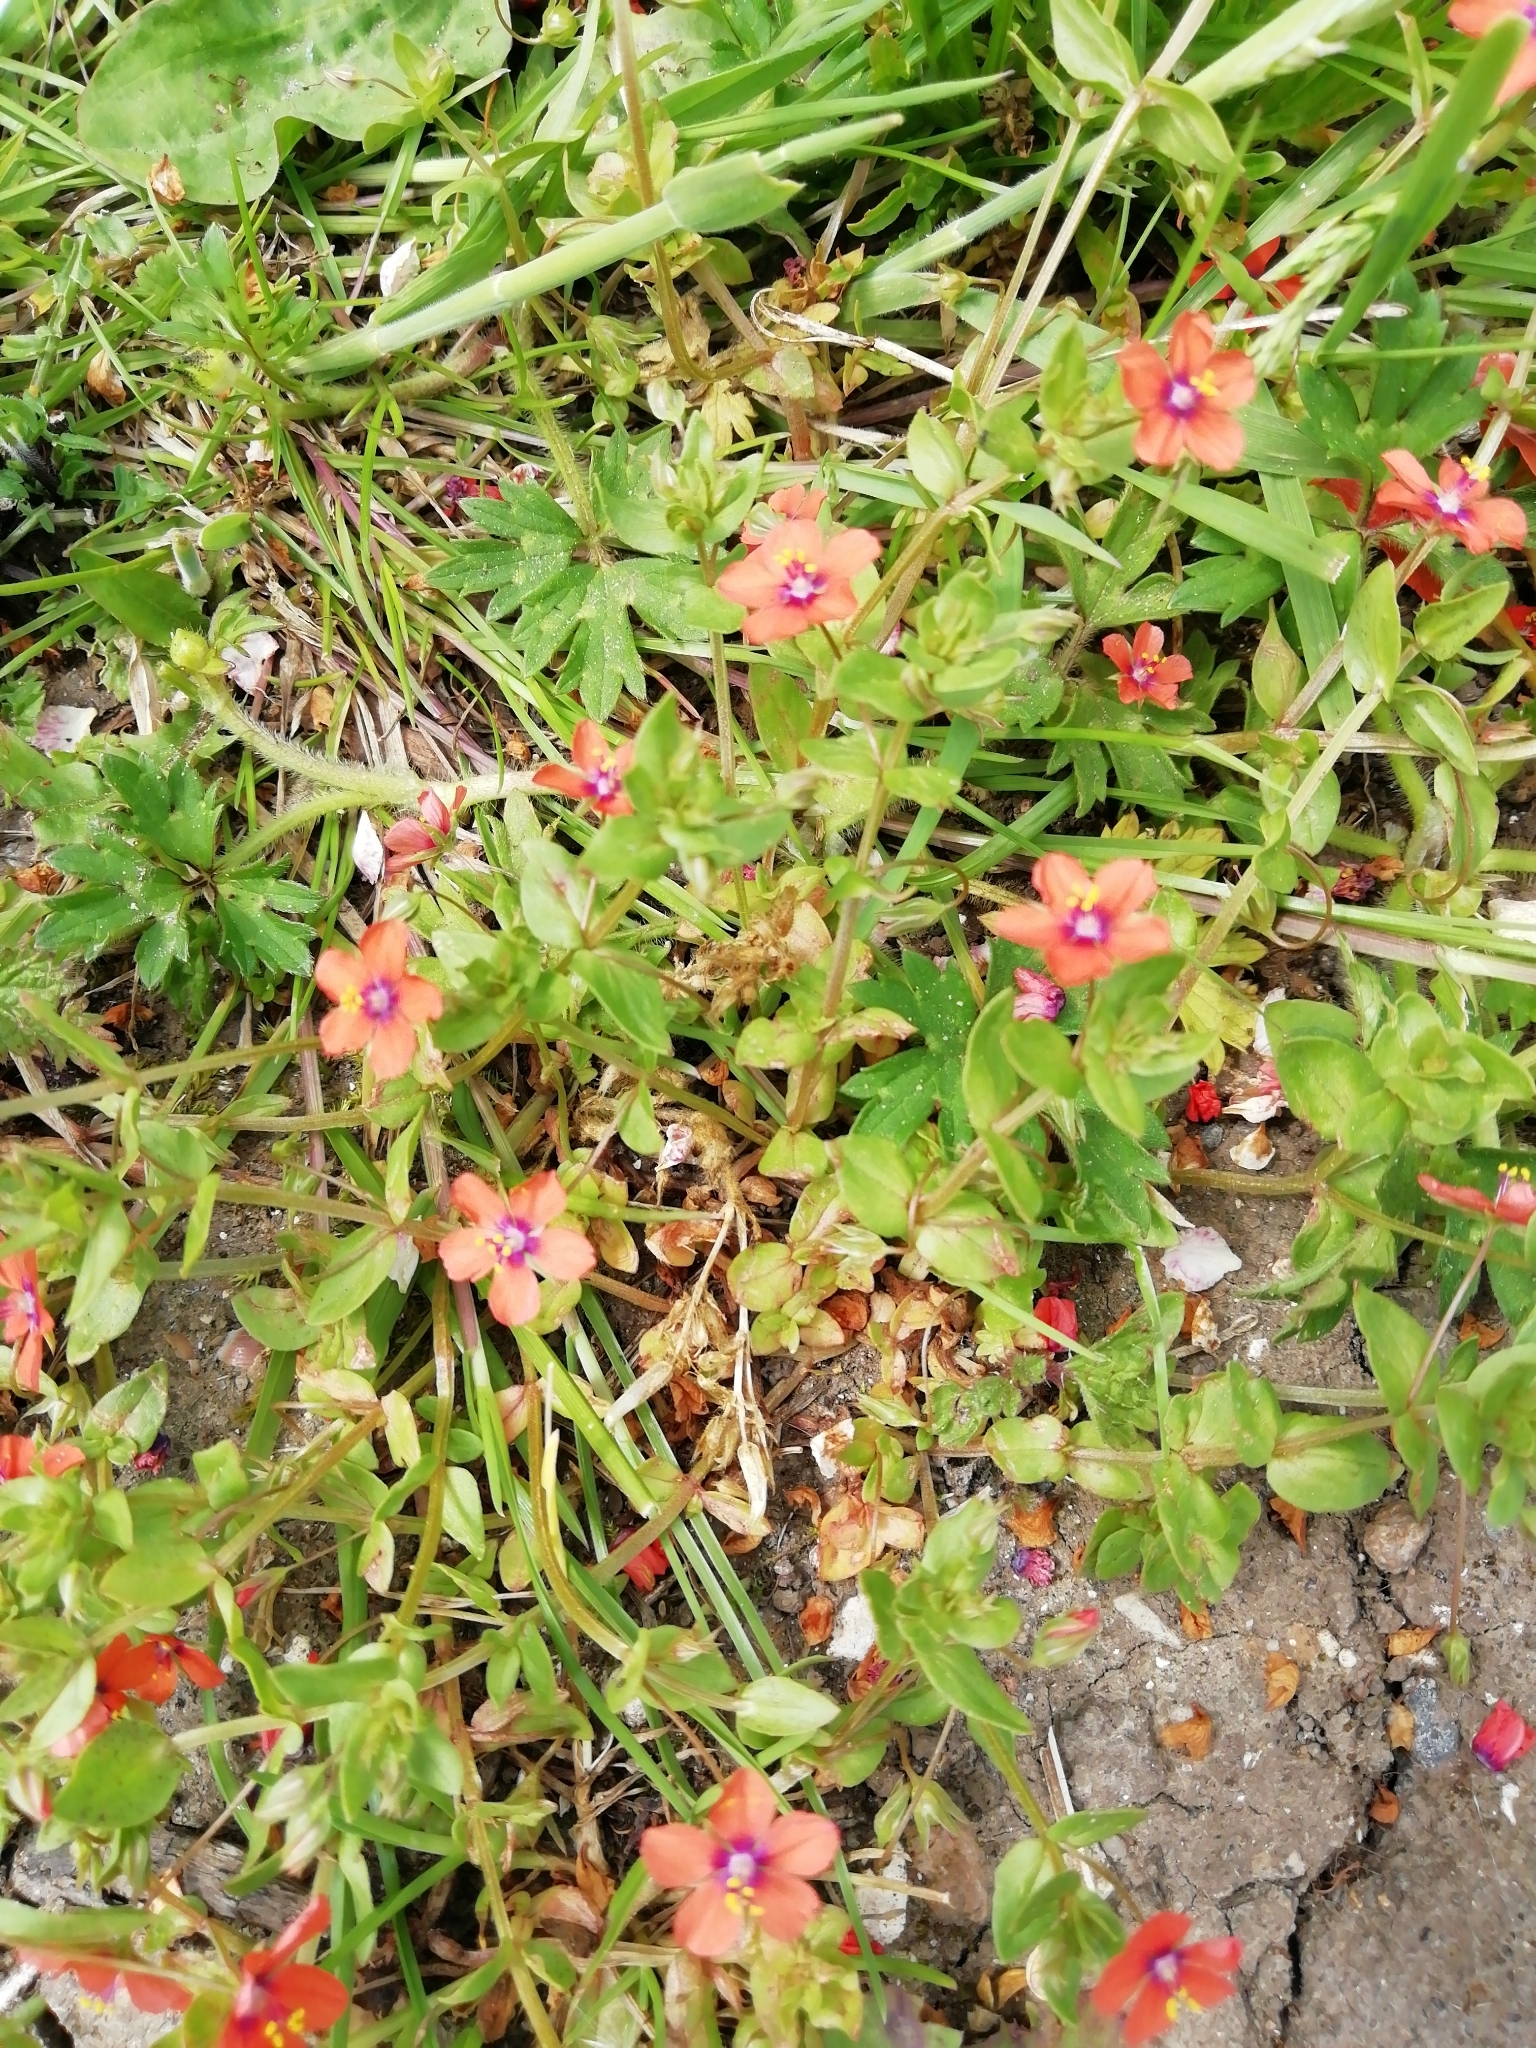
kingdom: Plantae
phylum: Tracheophyta
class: Magnoliopsida
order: Ericales
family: Primulaceae
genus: Lysimachia
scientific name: Lysimachia arvensis
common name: Scarlet pimpernel
